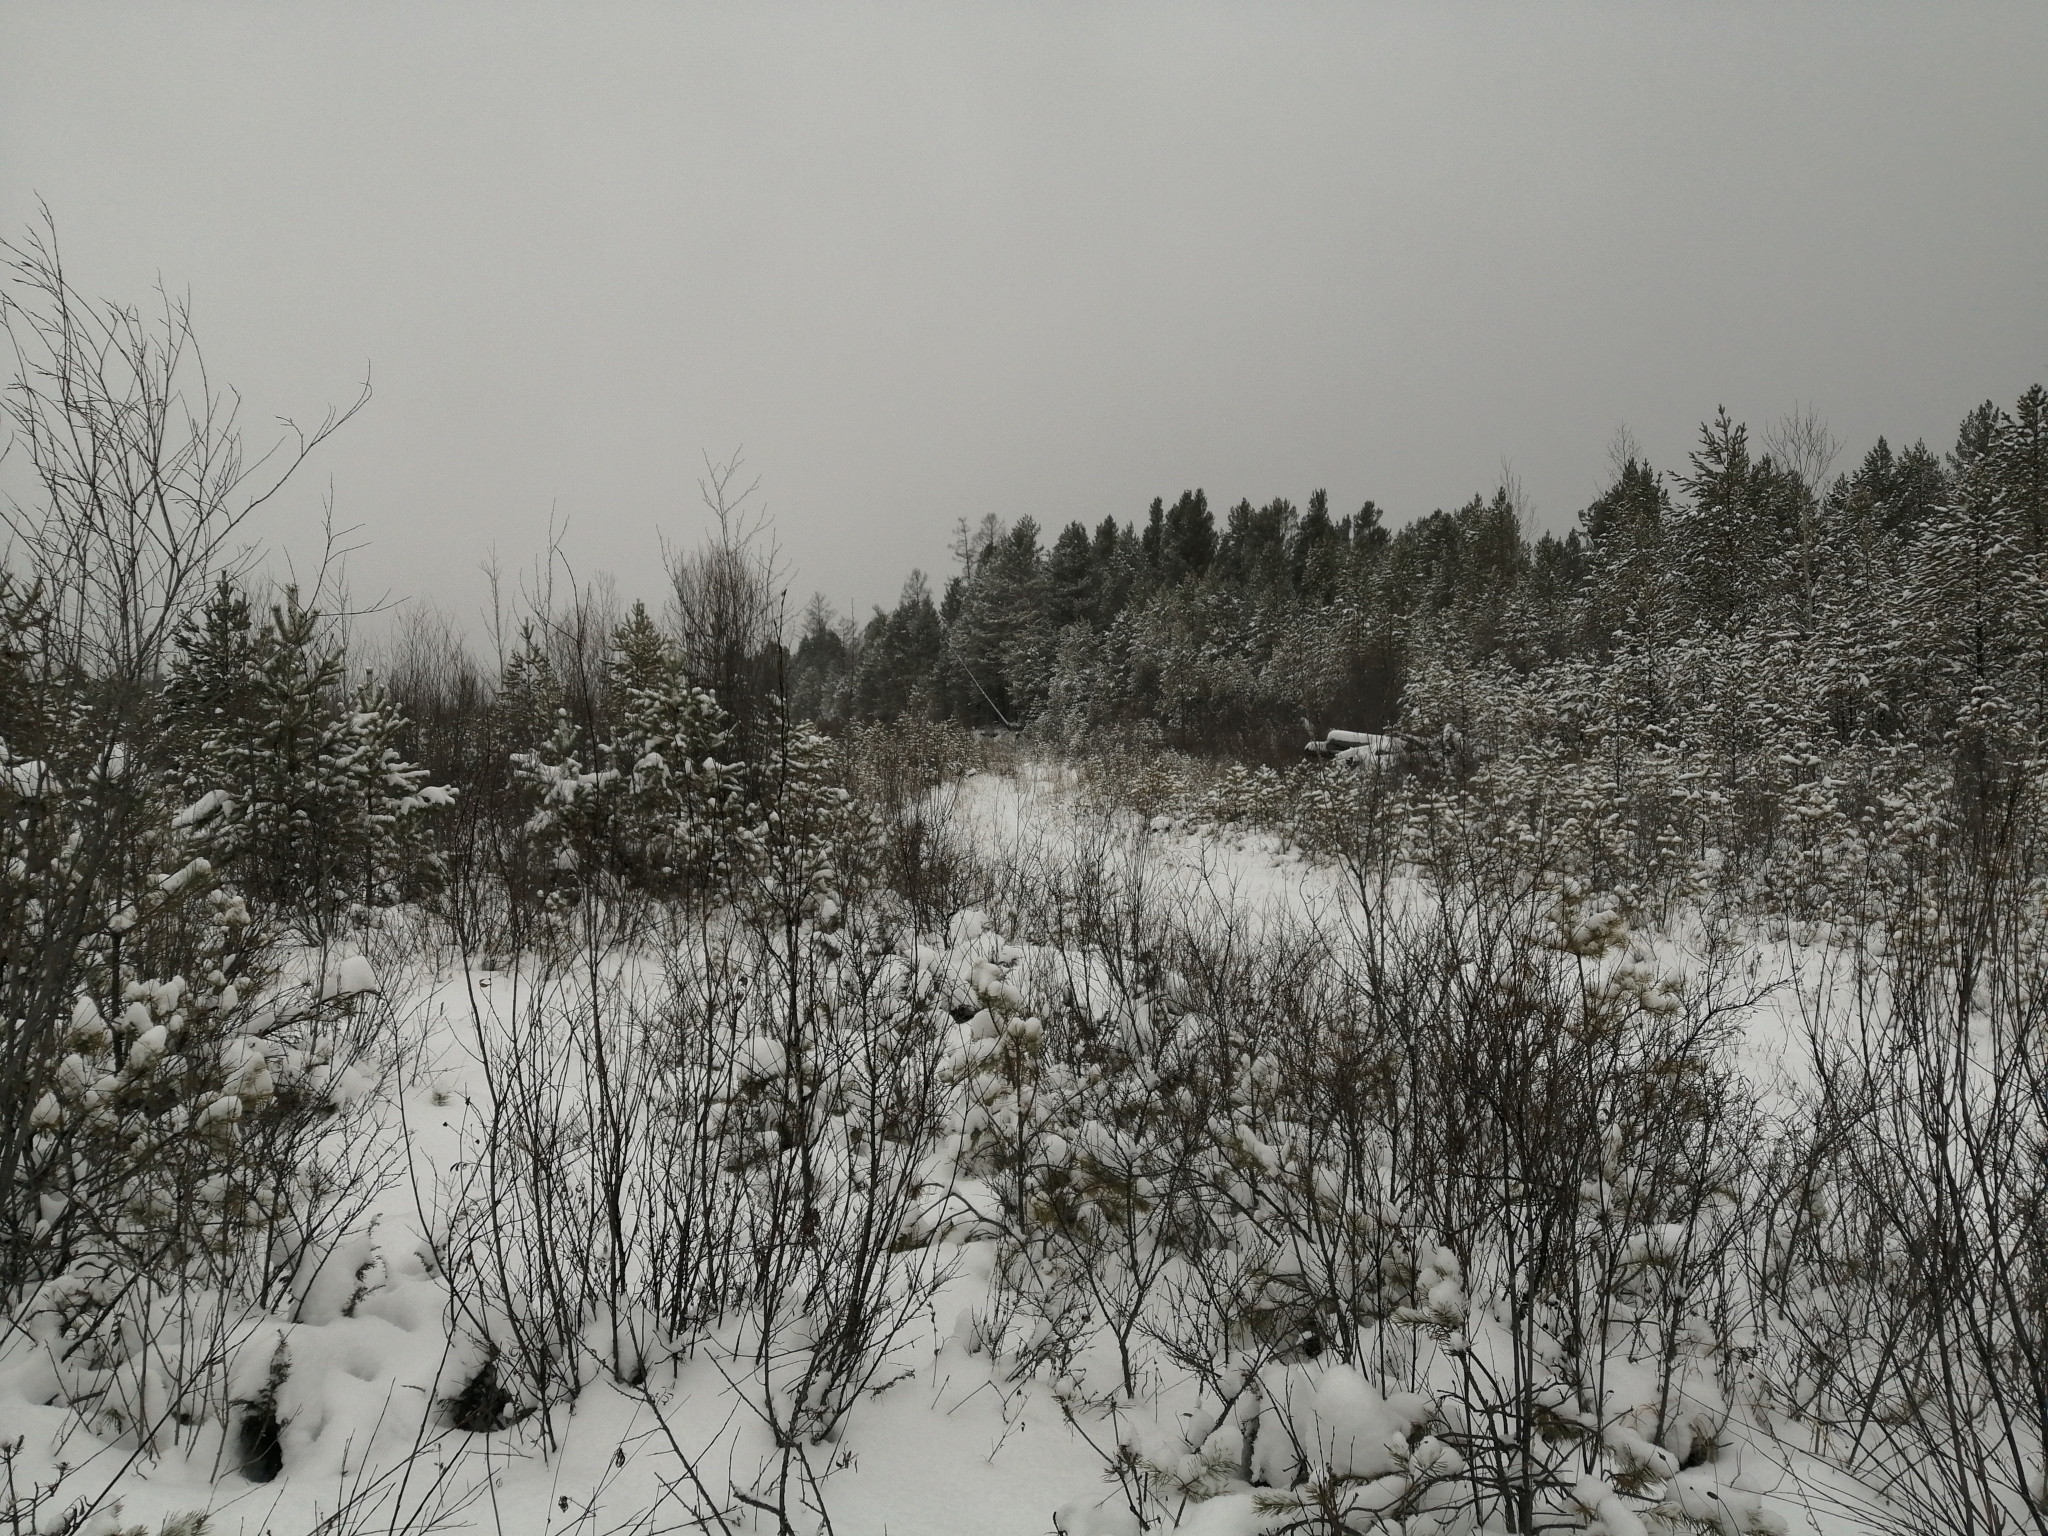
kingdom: Plantae
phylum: Tracheophyta
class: Pinopsida
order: Pinales
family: Pinaceae
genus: Pinus
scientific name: Pinus sylvestris
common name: Scots pine
